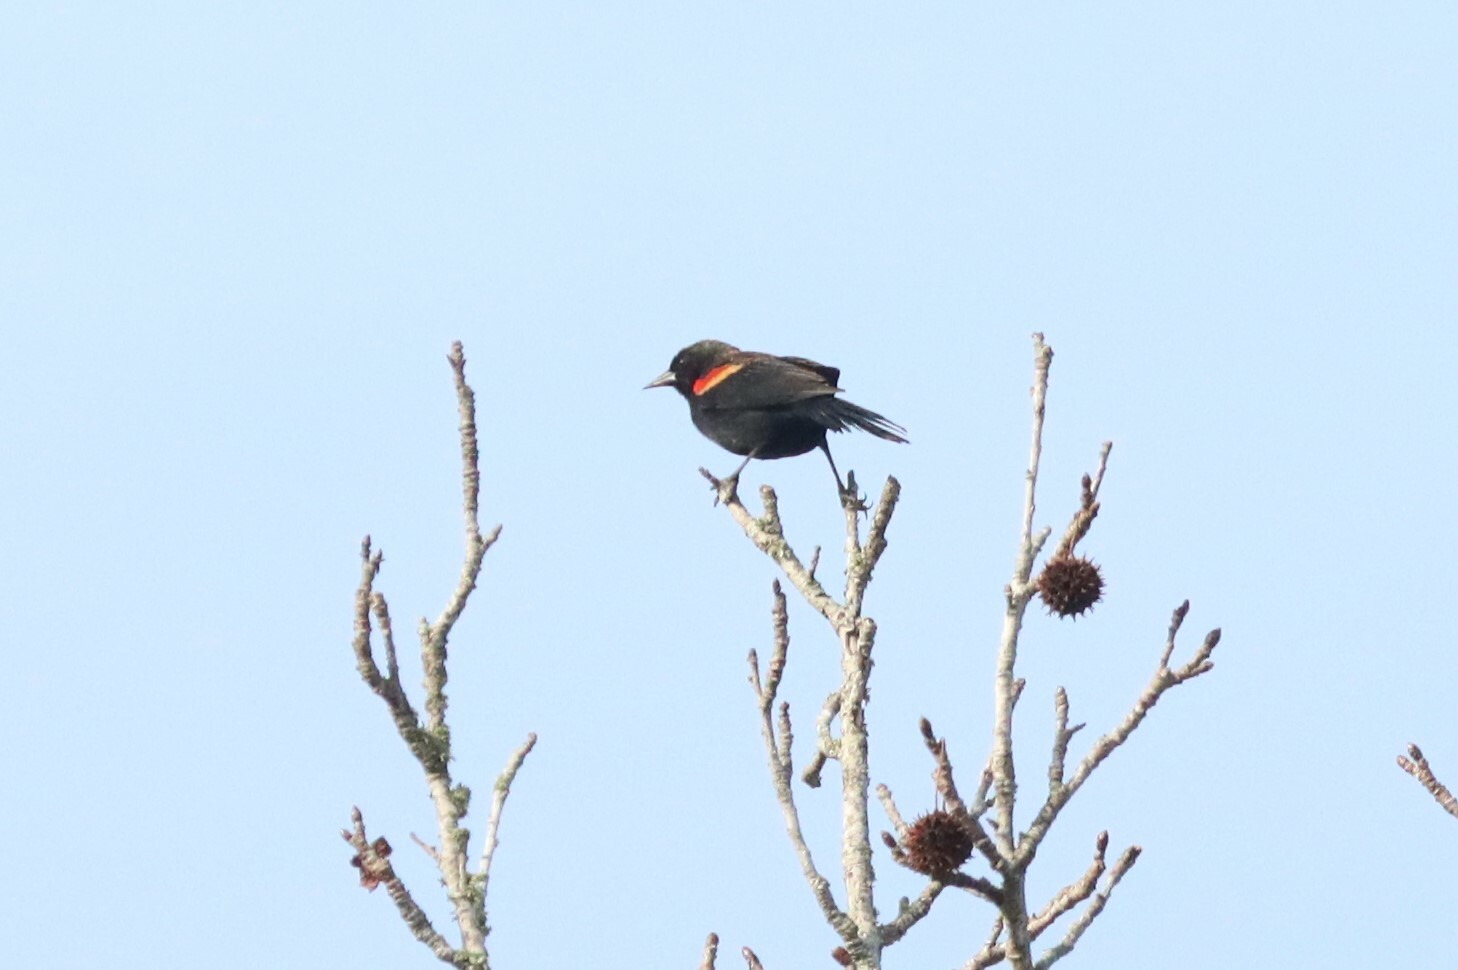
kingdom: Animalia
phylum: Chordata
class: Aves
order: Passeriformes
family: Icteridae
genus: Agelaius
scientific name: Agelaius phoeniceus
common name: Red-winged blackbird
